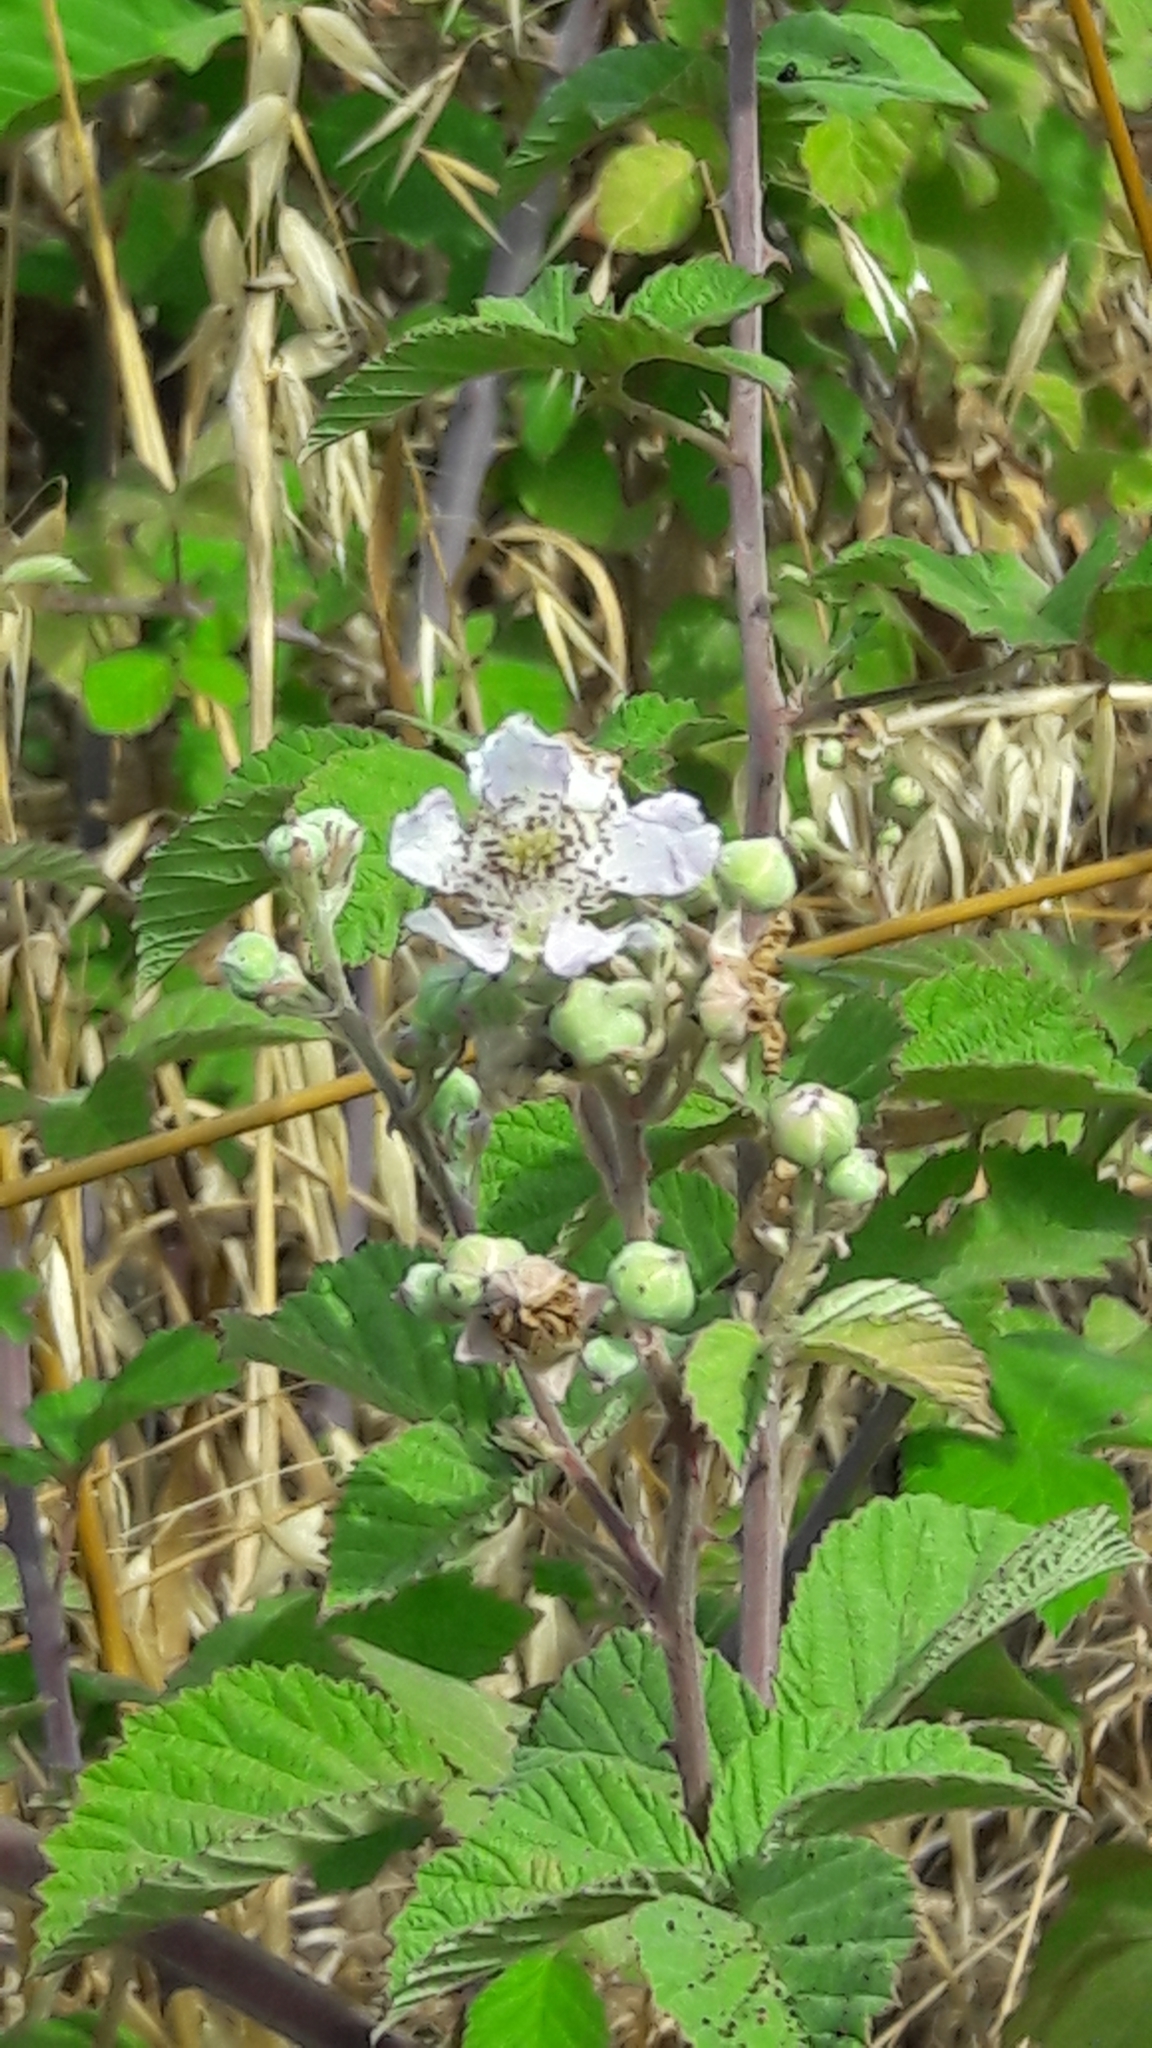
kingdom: Plantae
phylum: Tracheophyta
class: Magnoliopsida
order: Rosales
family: Rosaceae
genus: Rubus
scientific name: Rubus sanctus
